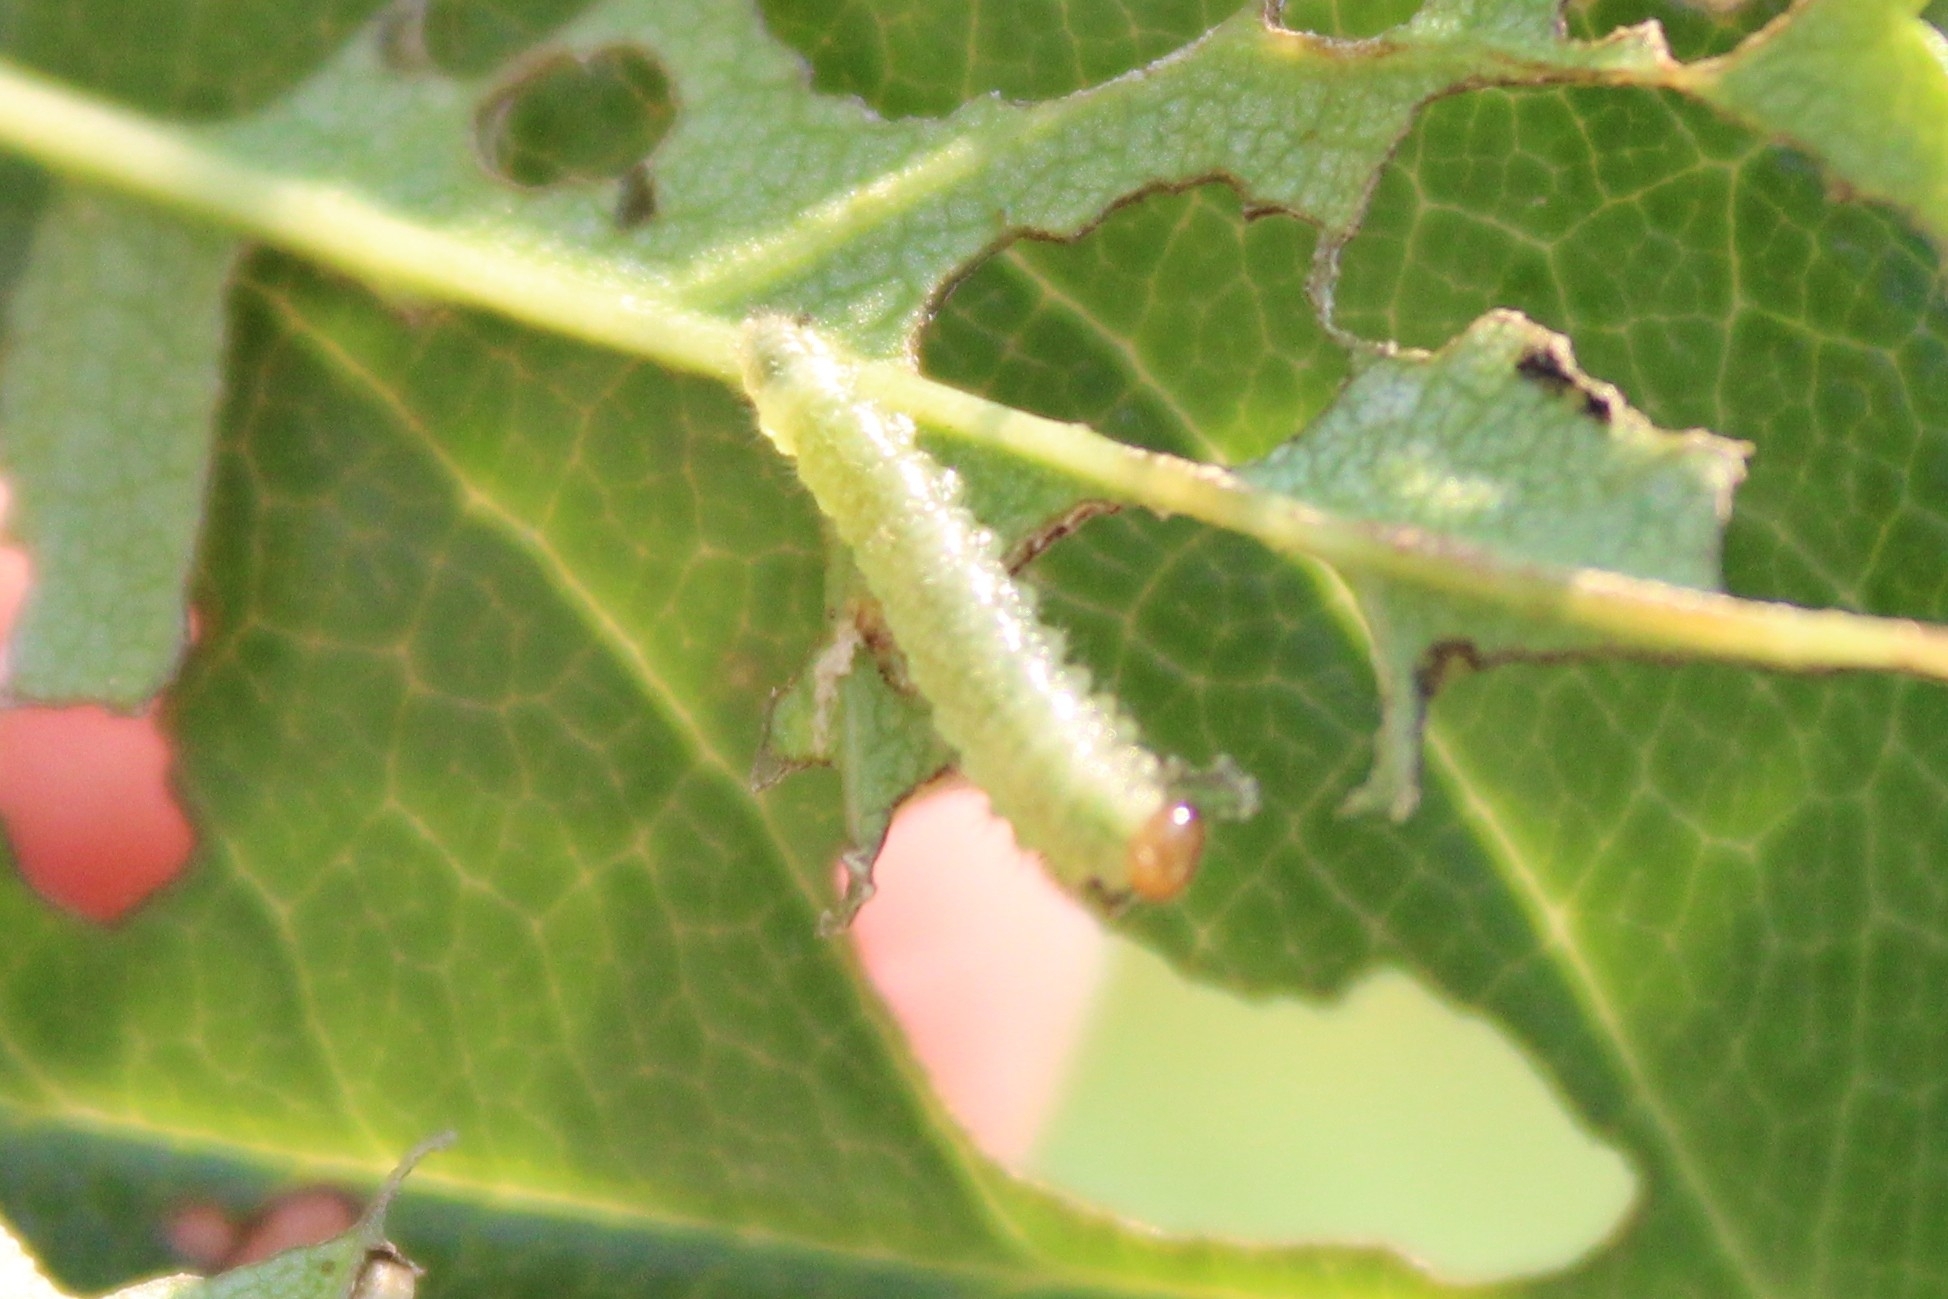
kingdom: Animalia
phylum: Arthropoda
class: Insecta
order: Hymenoptera
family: Tenthredinidae
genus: Cladius
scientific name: Cladius pectinicornis
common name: Sawfly
